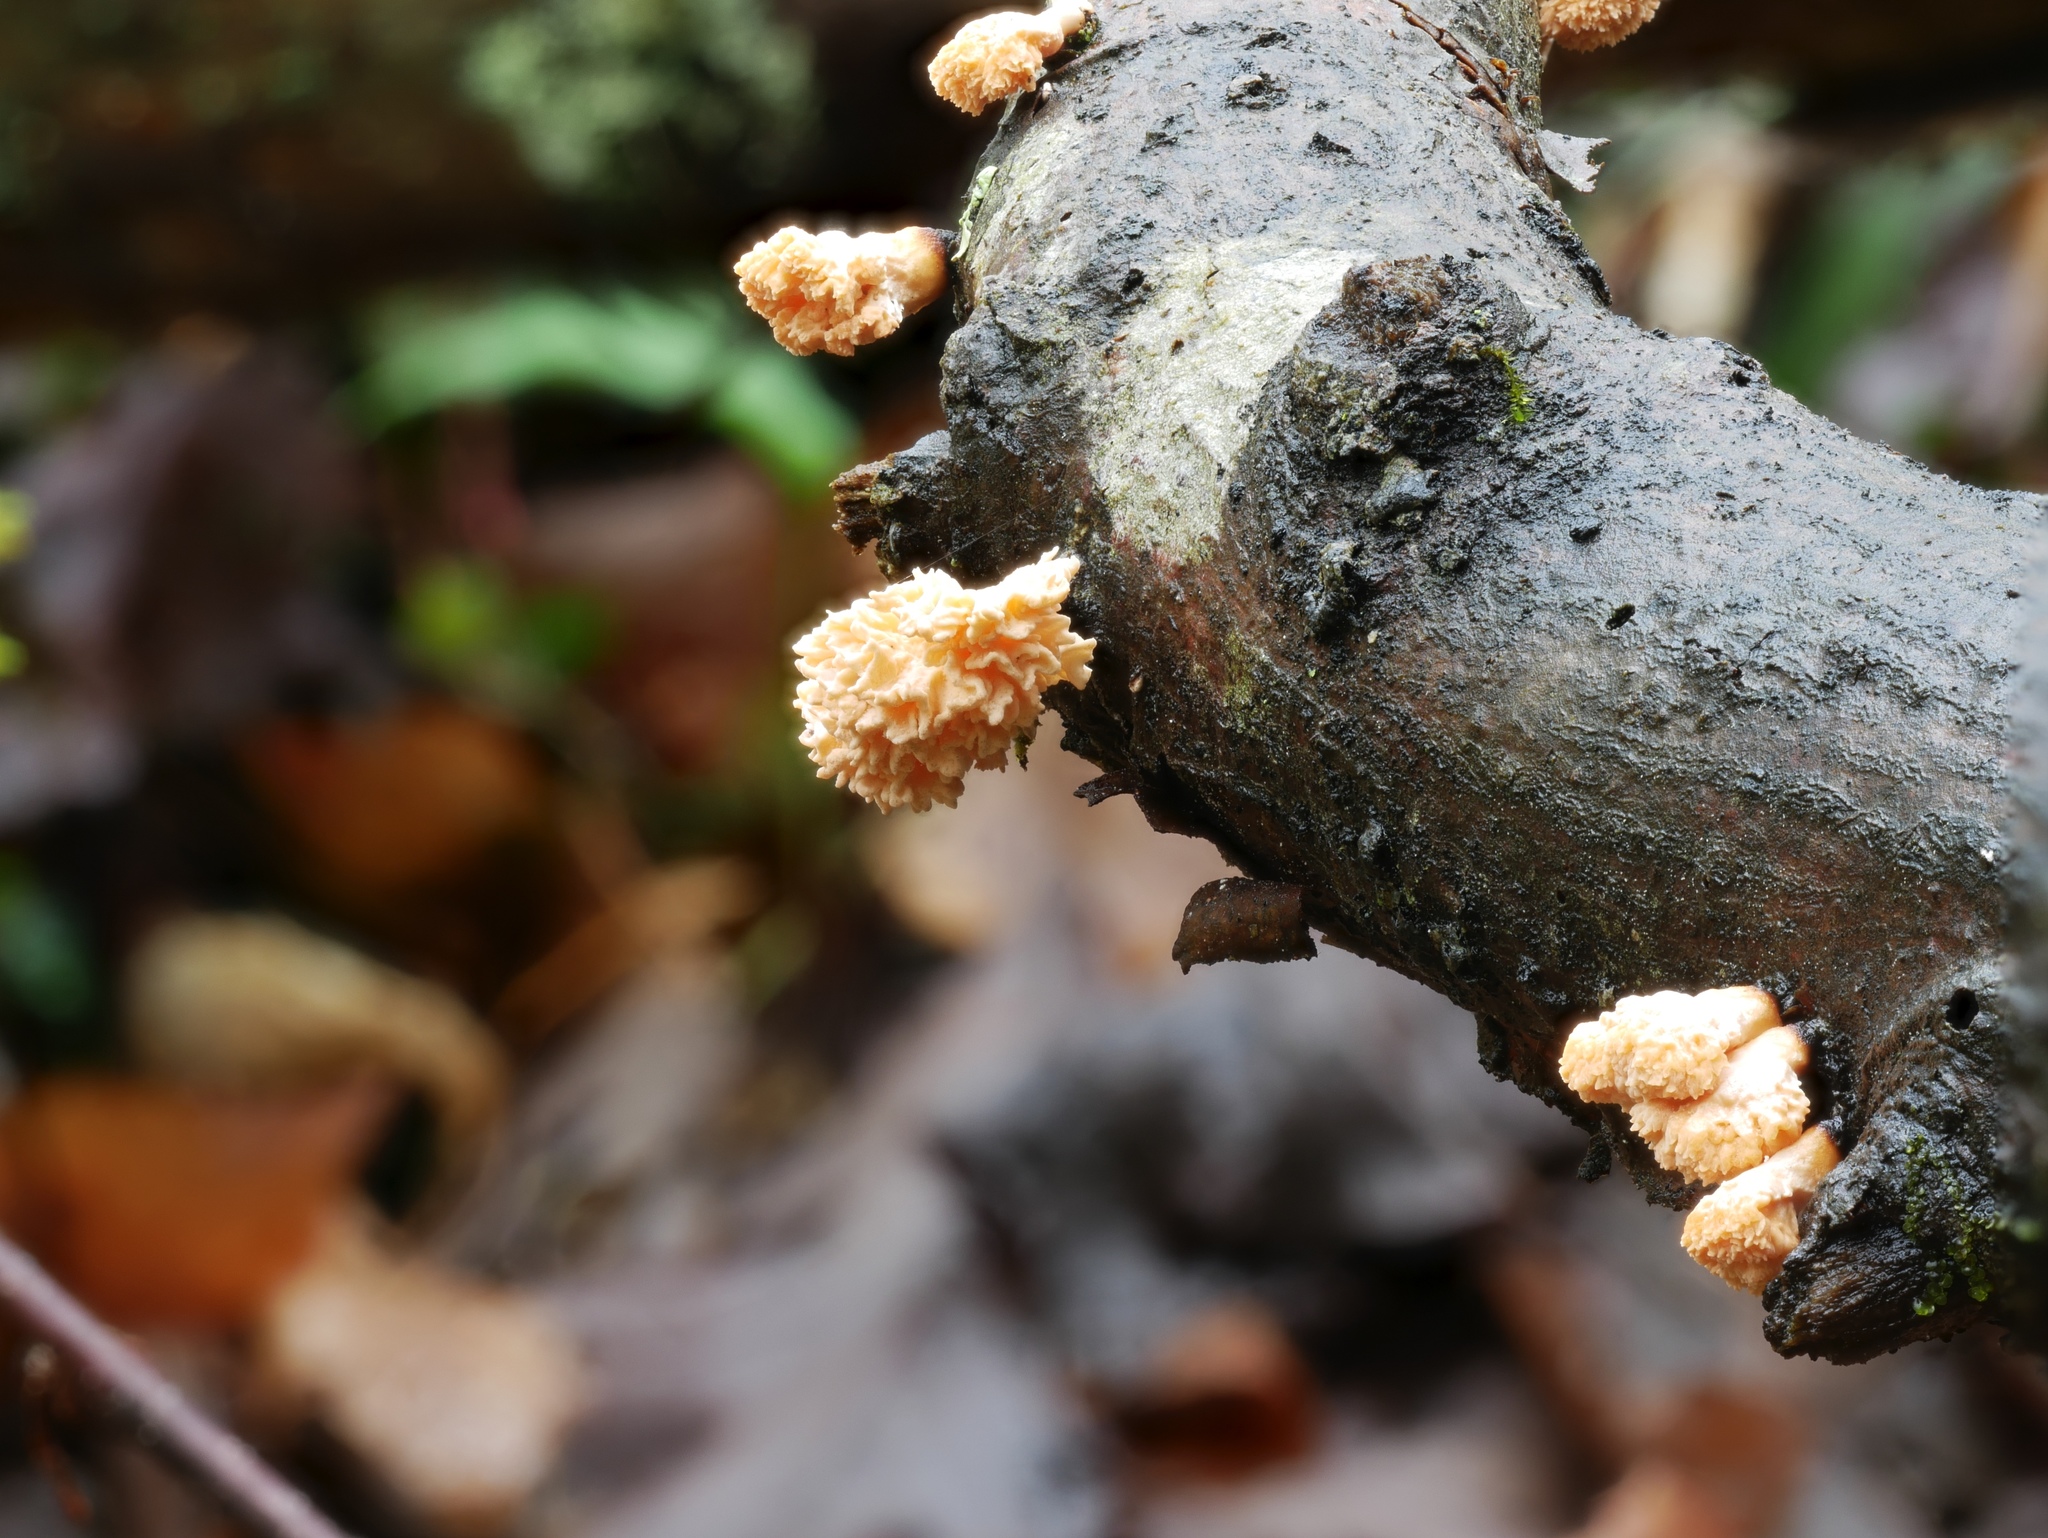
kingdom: Fungi
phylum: Ascomycota
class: Sordariomycetes
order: Xylariales
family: Xylariaceae
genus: Xylaria
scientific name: Xylaria cubensis
